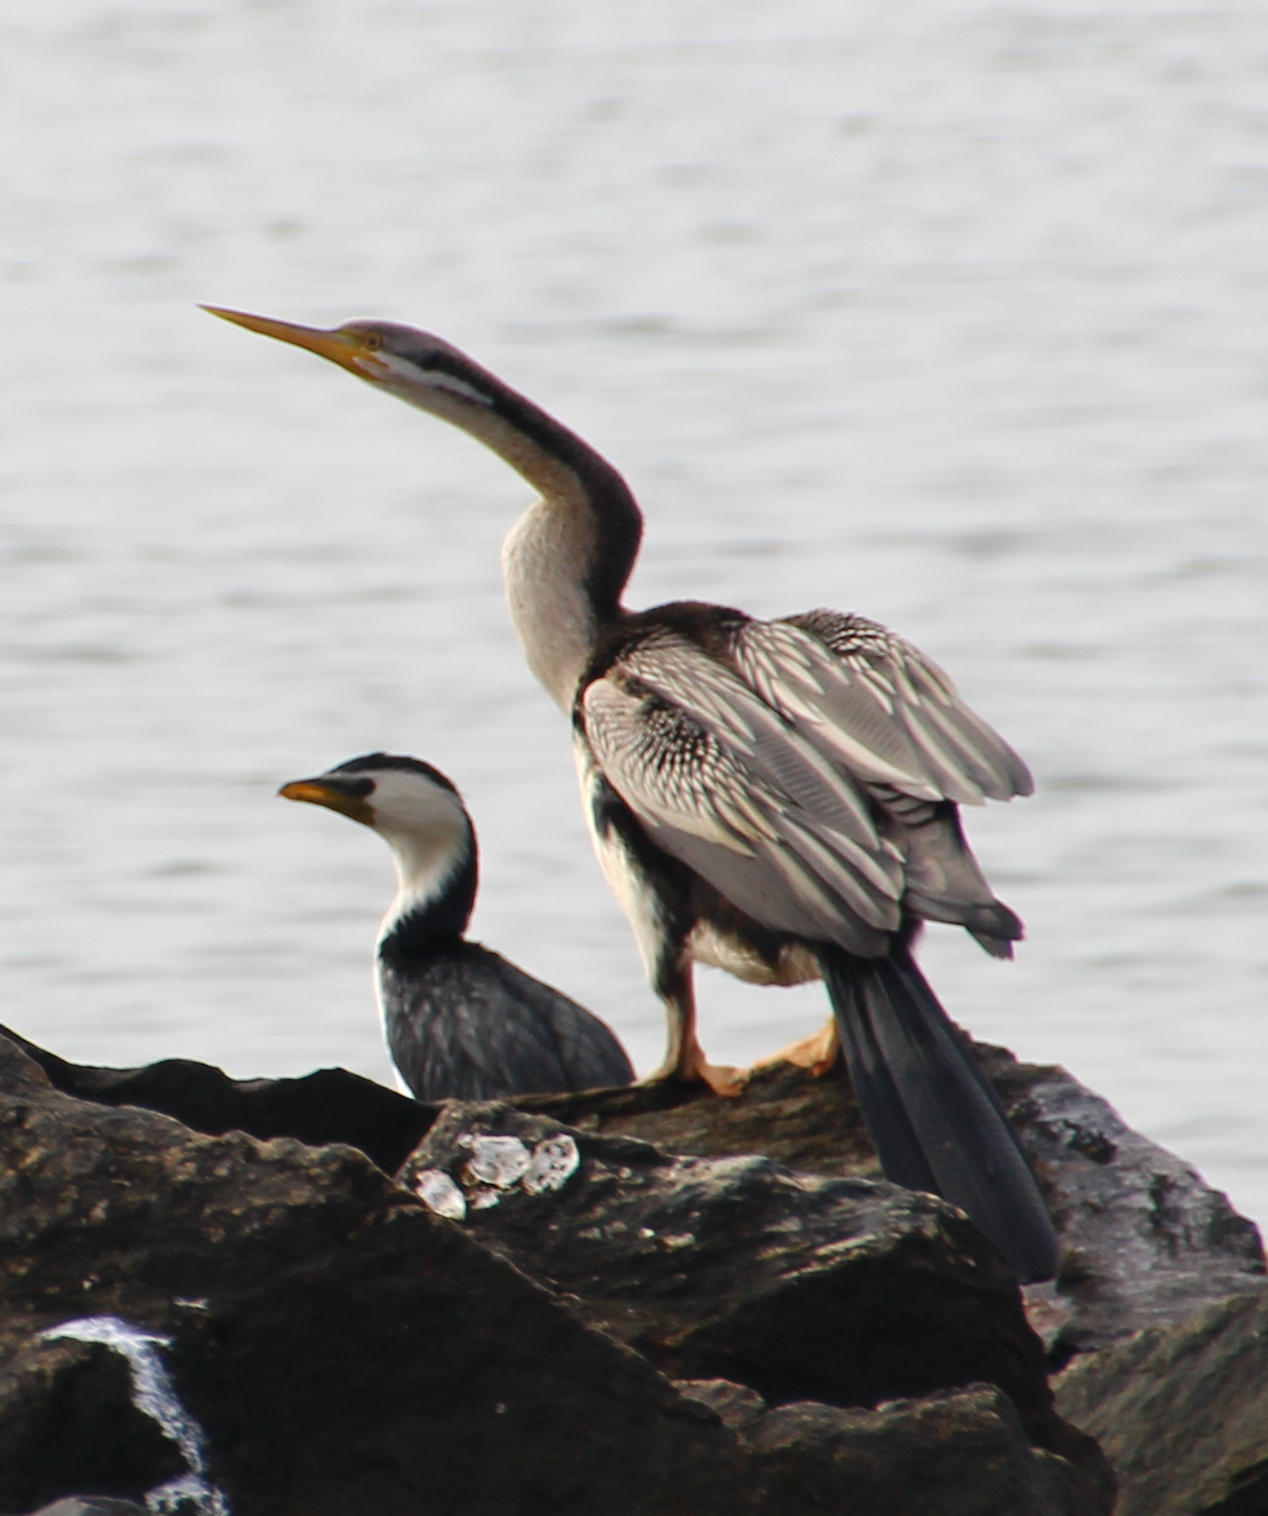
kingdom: Animalia
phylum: Chordata
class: Aves
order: Suliformes
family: Anhingidae
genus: Anhinga
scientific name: Anhinga novaehollandiae
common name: Australasian darter
